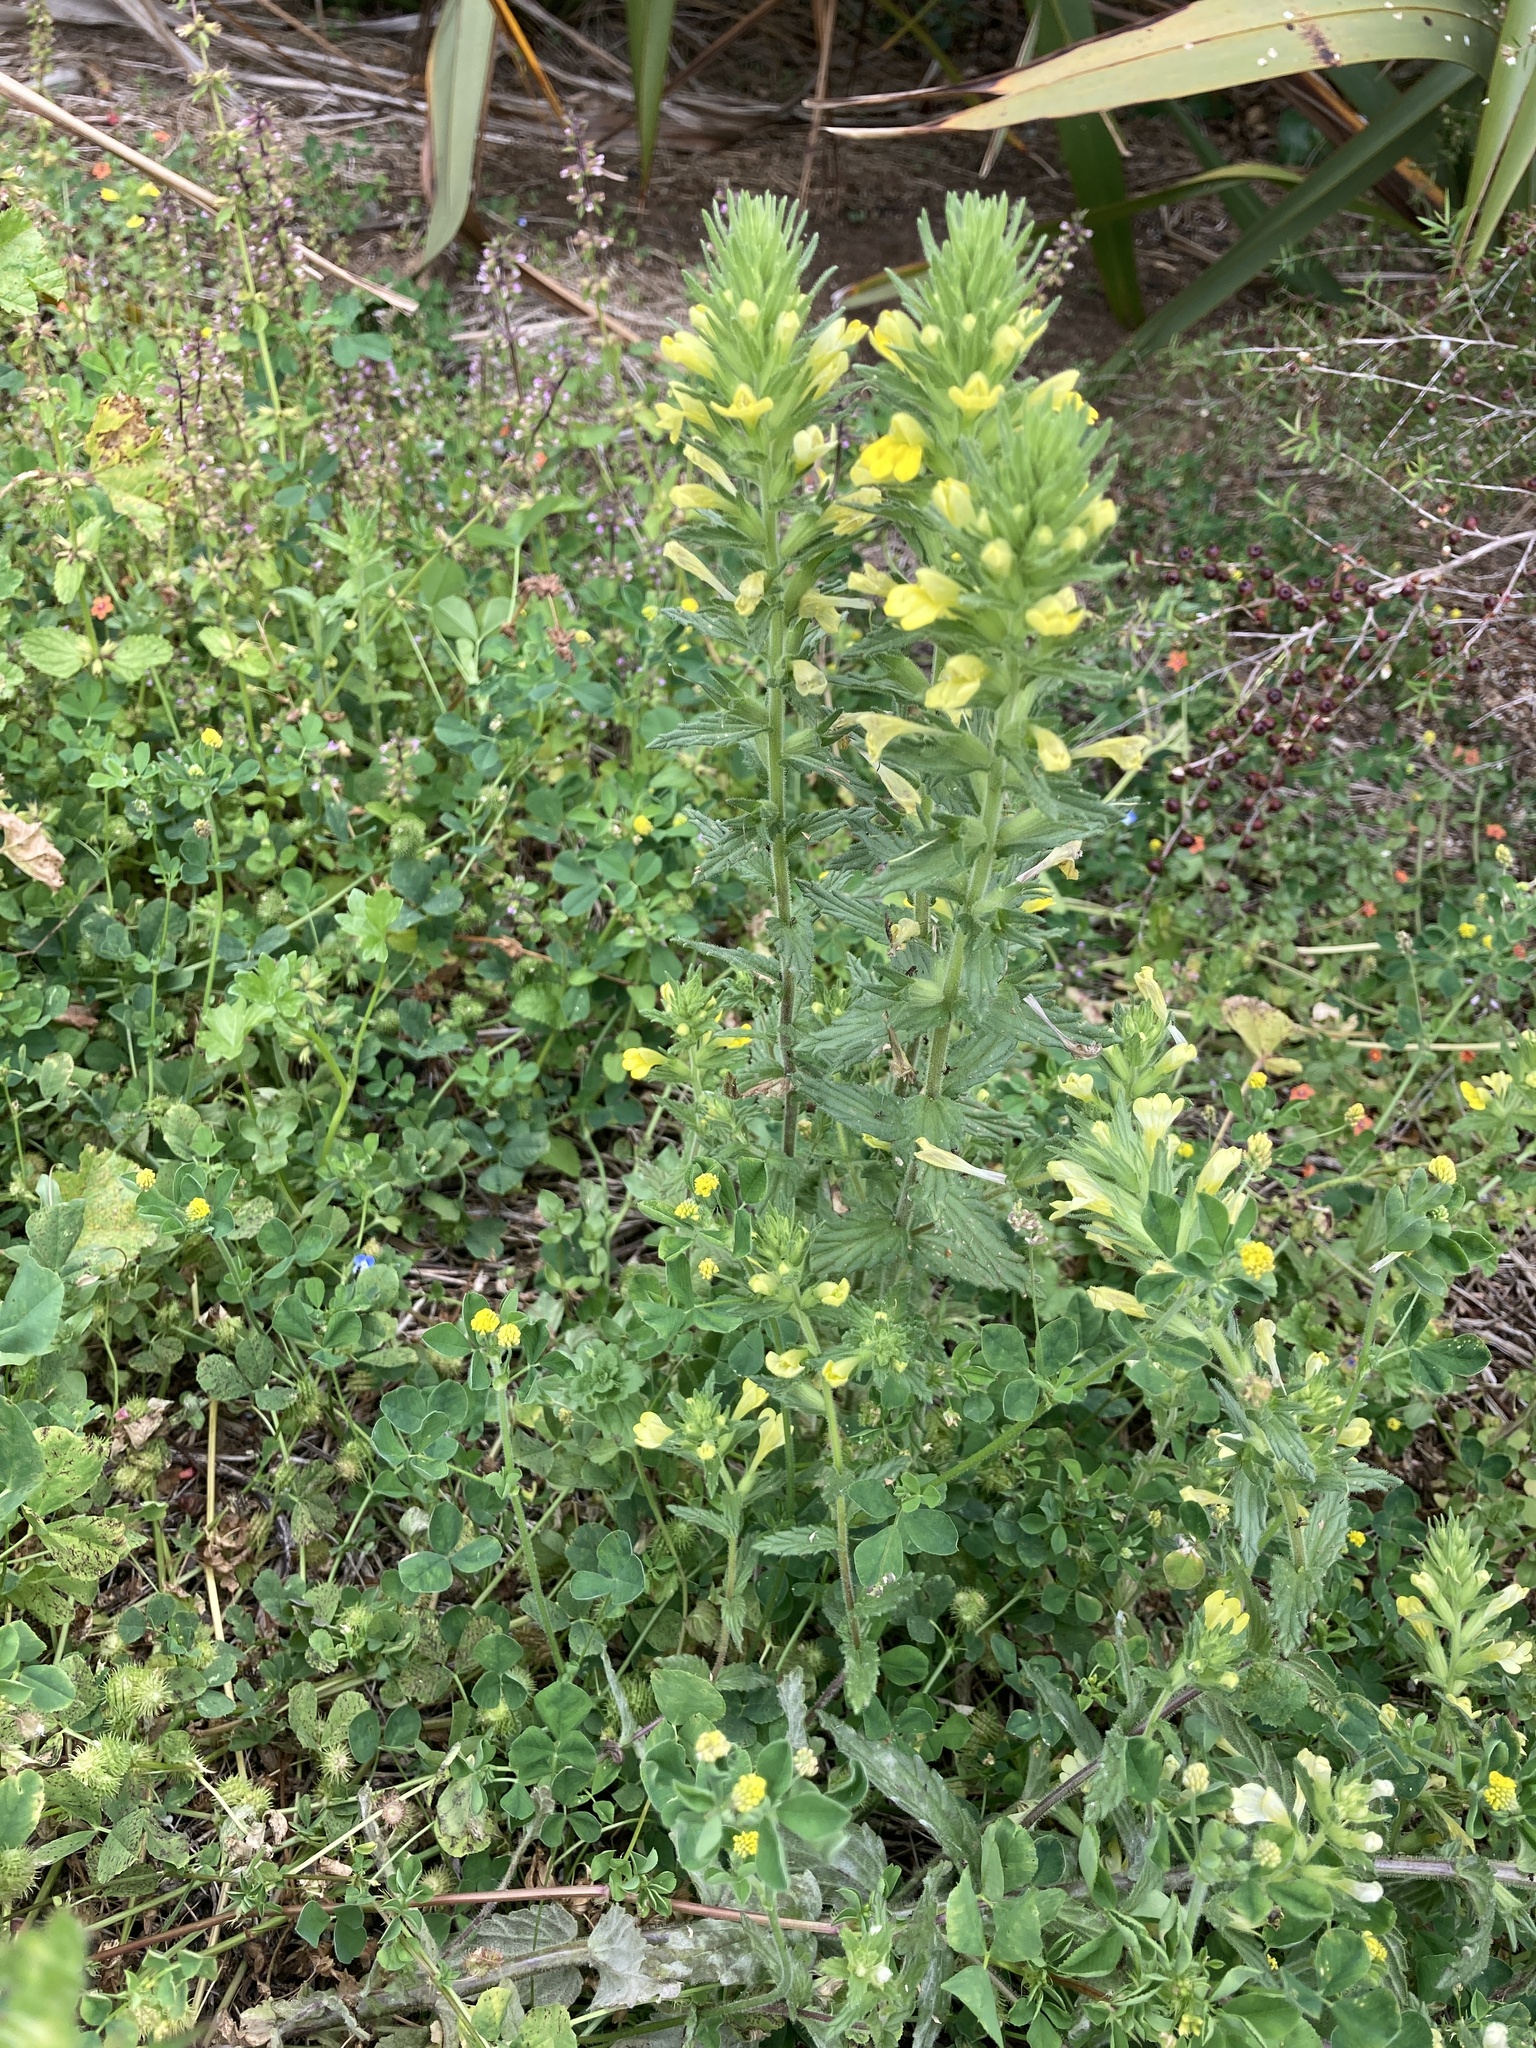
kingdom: Plantae
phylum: Tracheophyta
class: Magnoliopsida
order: Lamiales
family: Orobanchaceae
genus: Bellardia
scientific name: Bellardia viscosa
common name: Sticky parentucellia
